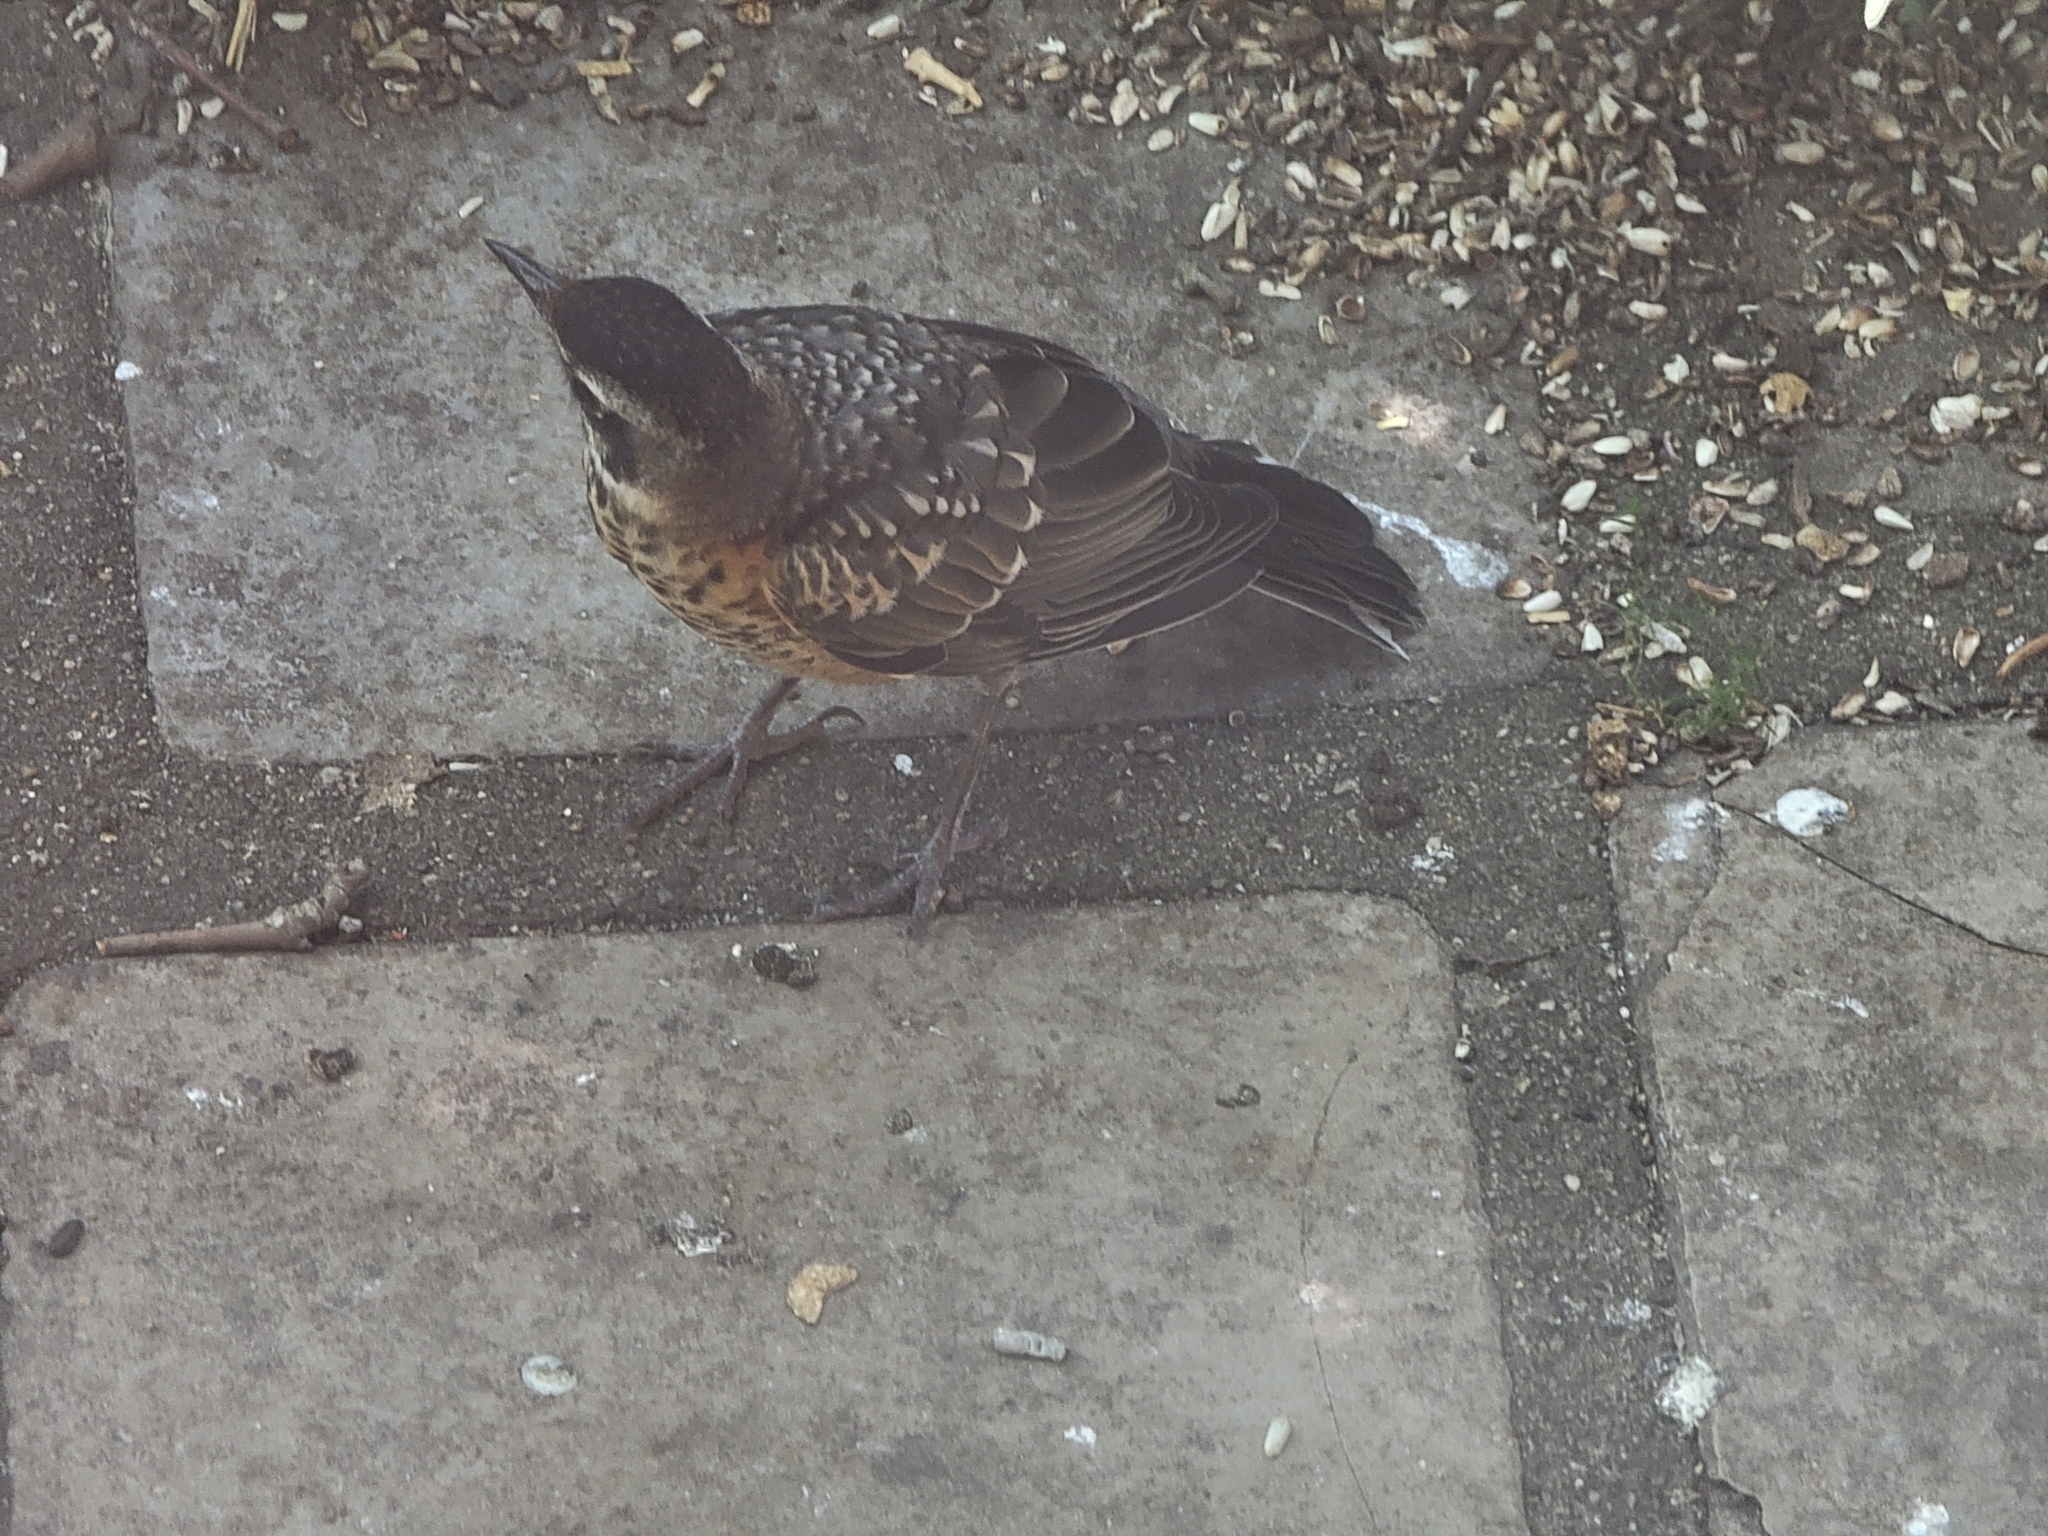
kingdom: Animalia
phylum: Chordata
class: Aves
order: Passeriformes
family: Turdidae
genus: Turdus
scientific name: Turdus migratorius
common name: American robin
